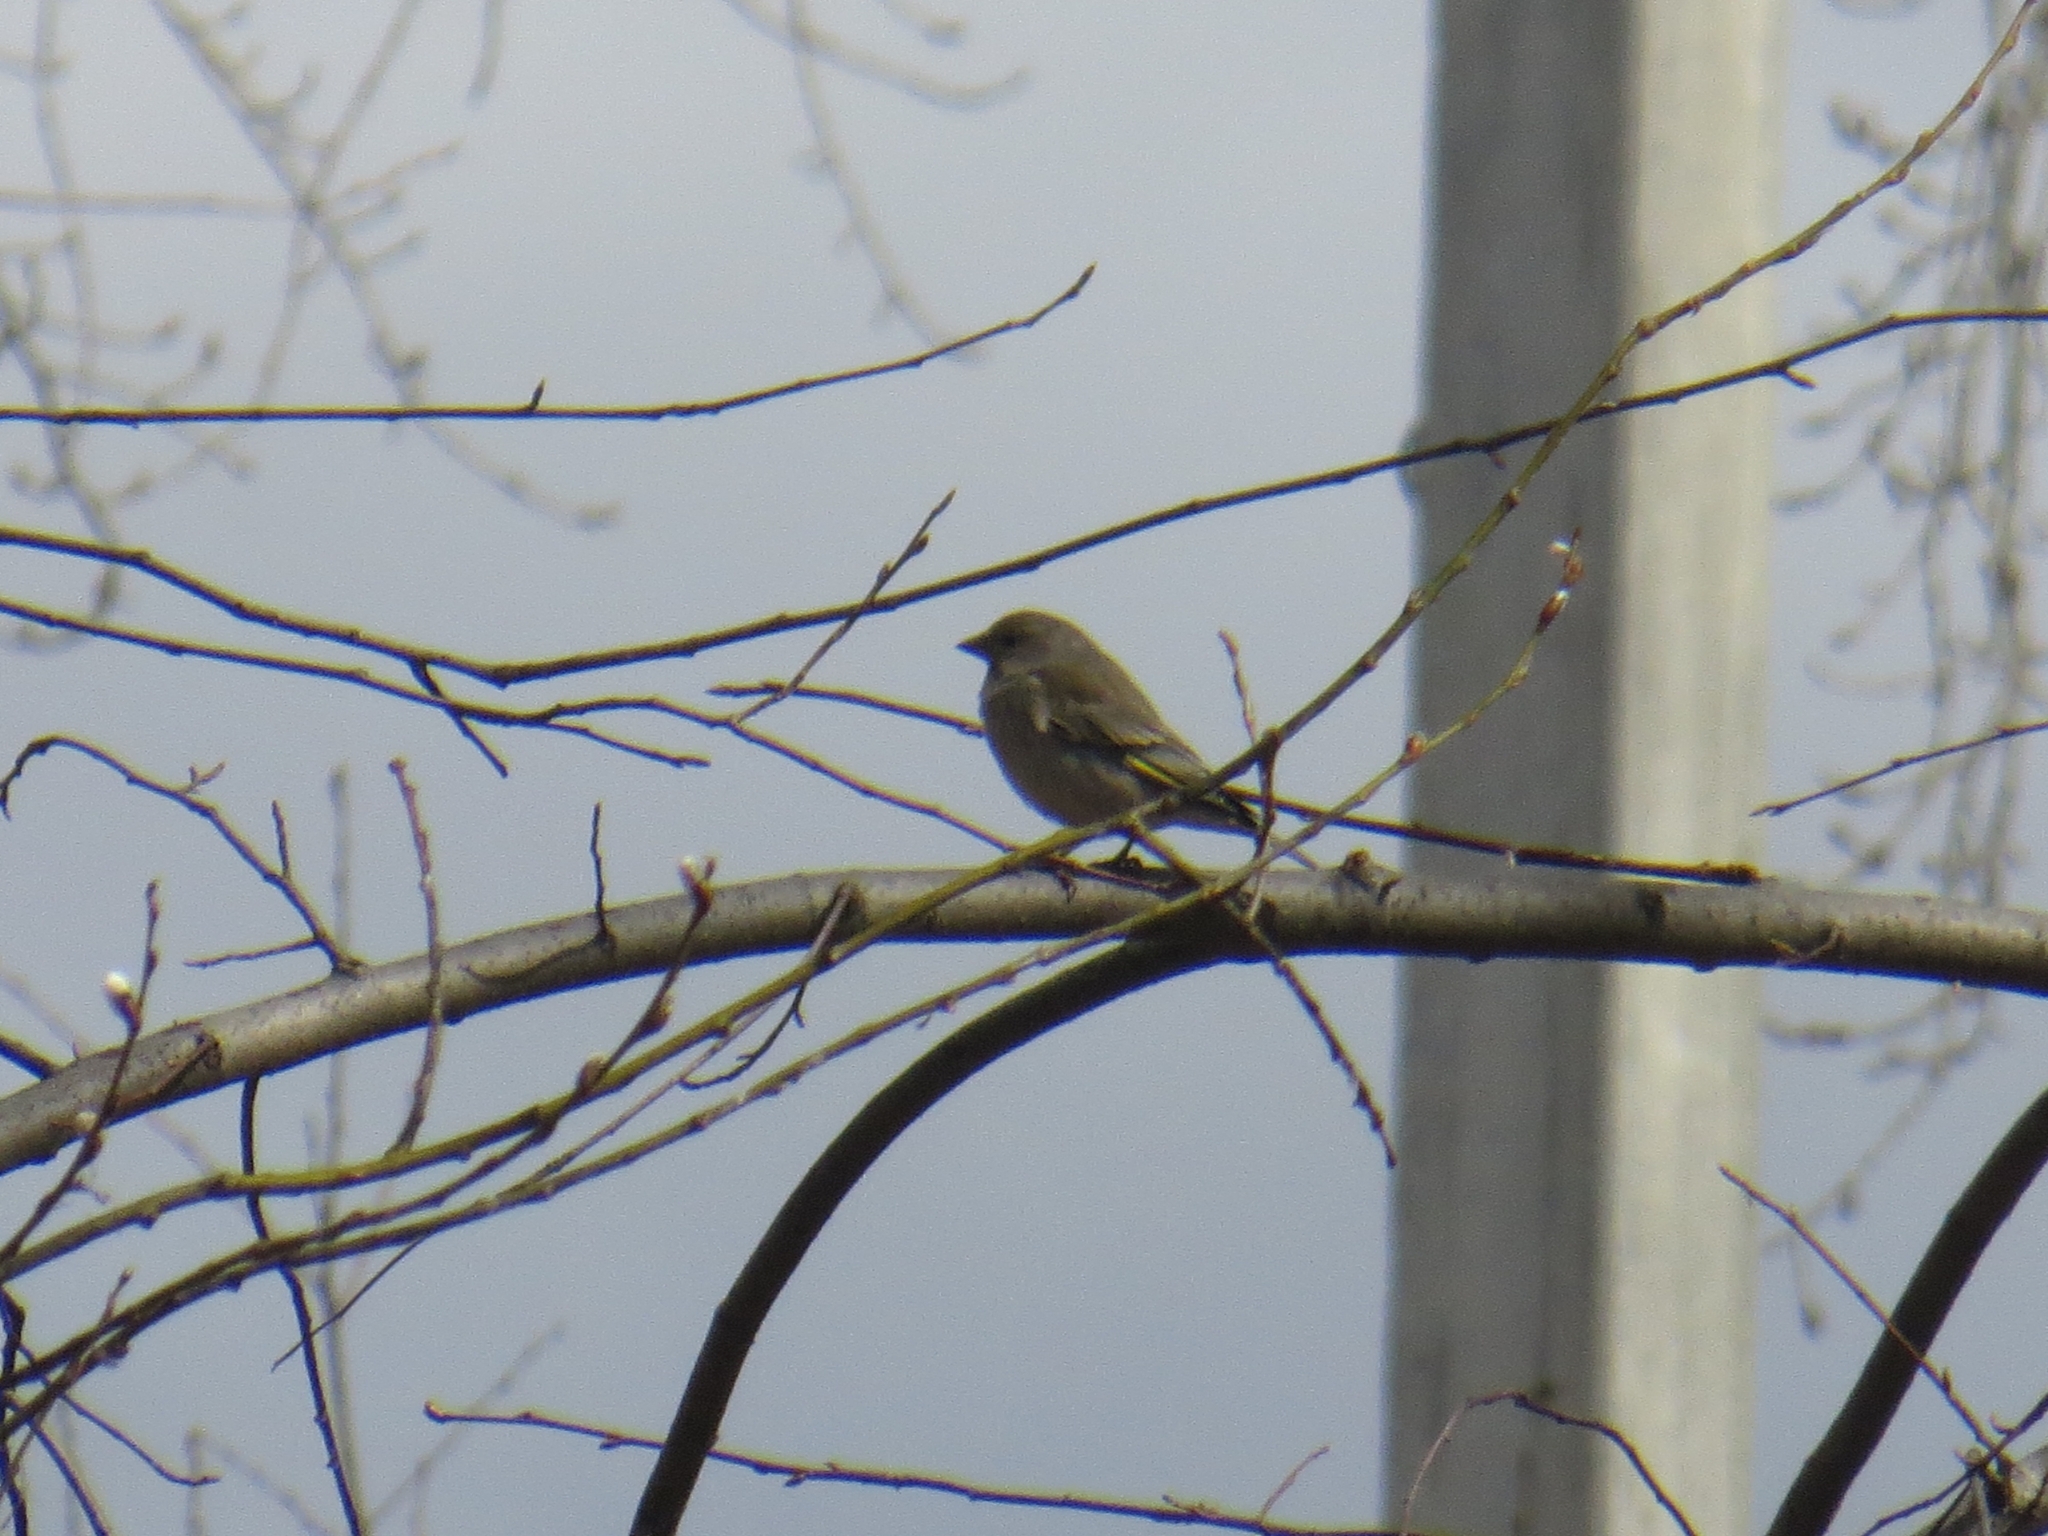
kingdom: Plantae
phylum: Tracheophyta
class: Liliopsida
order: Poales
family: Poaceae
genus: Chloris
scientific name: Chloris chloris
